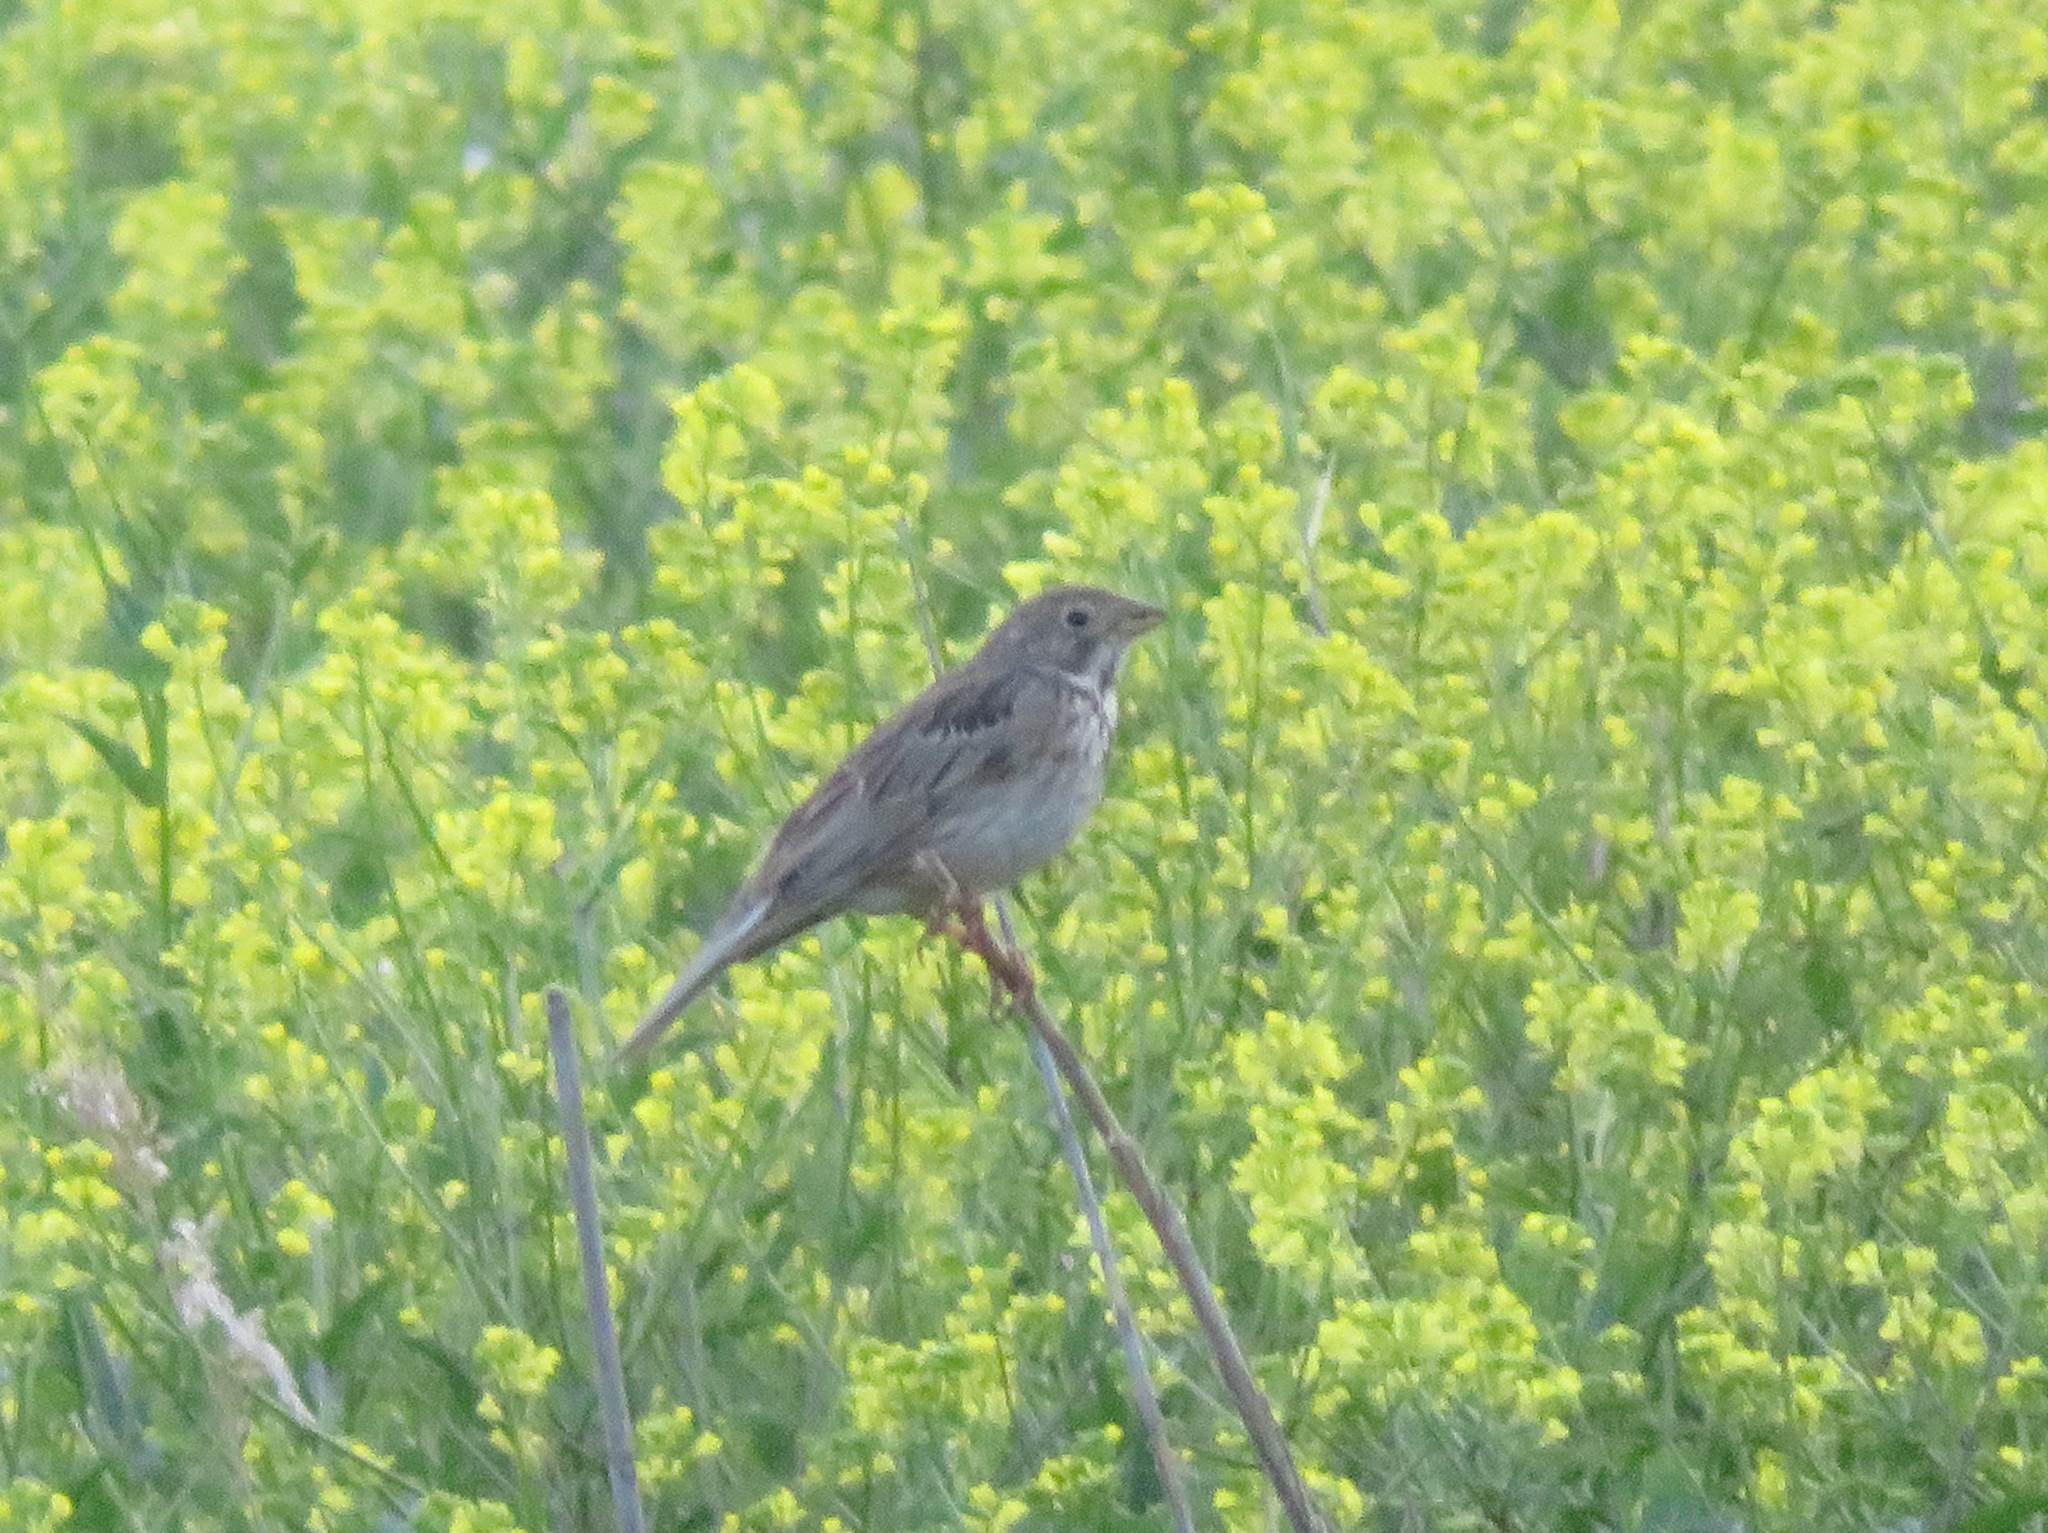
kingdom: Animalia
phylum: Chordata
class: Aves
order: Passeriformes
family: Emberizidae
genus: Emberiza
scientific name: Emberiza calandra
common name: Corn bunting
